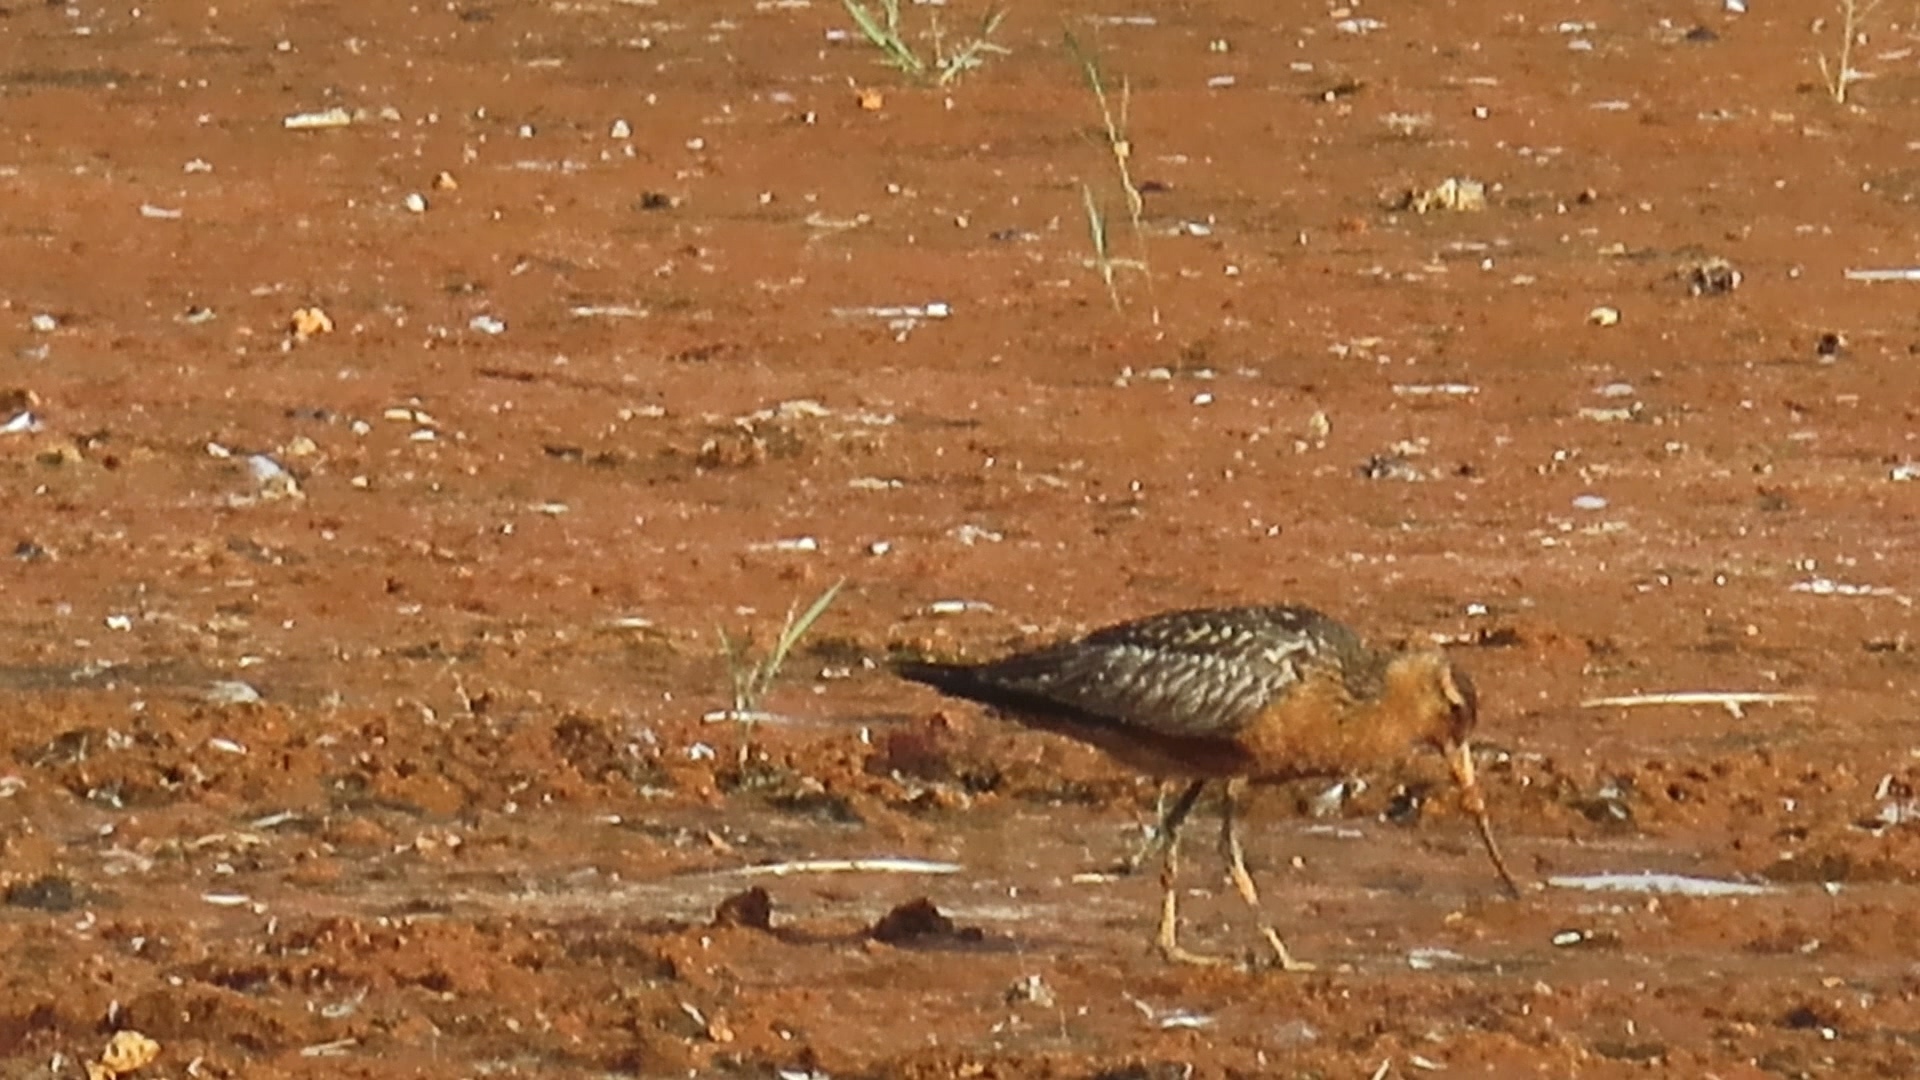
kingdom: Animalia
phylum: Chordata
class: Aves
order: Charadriiformes
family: Scolopacidae
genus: Limosa
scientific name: Limosa lapponica
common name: Bar-tailed godwit
